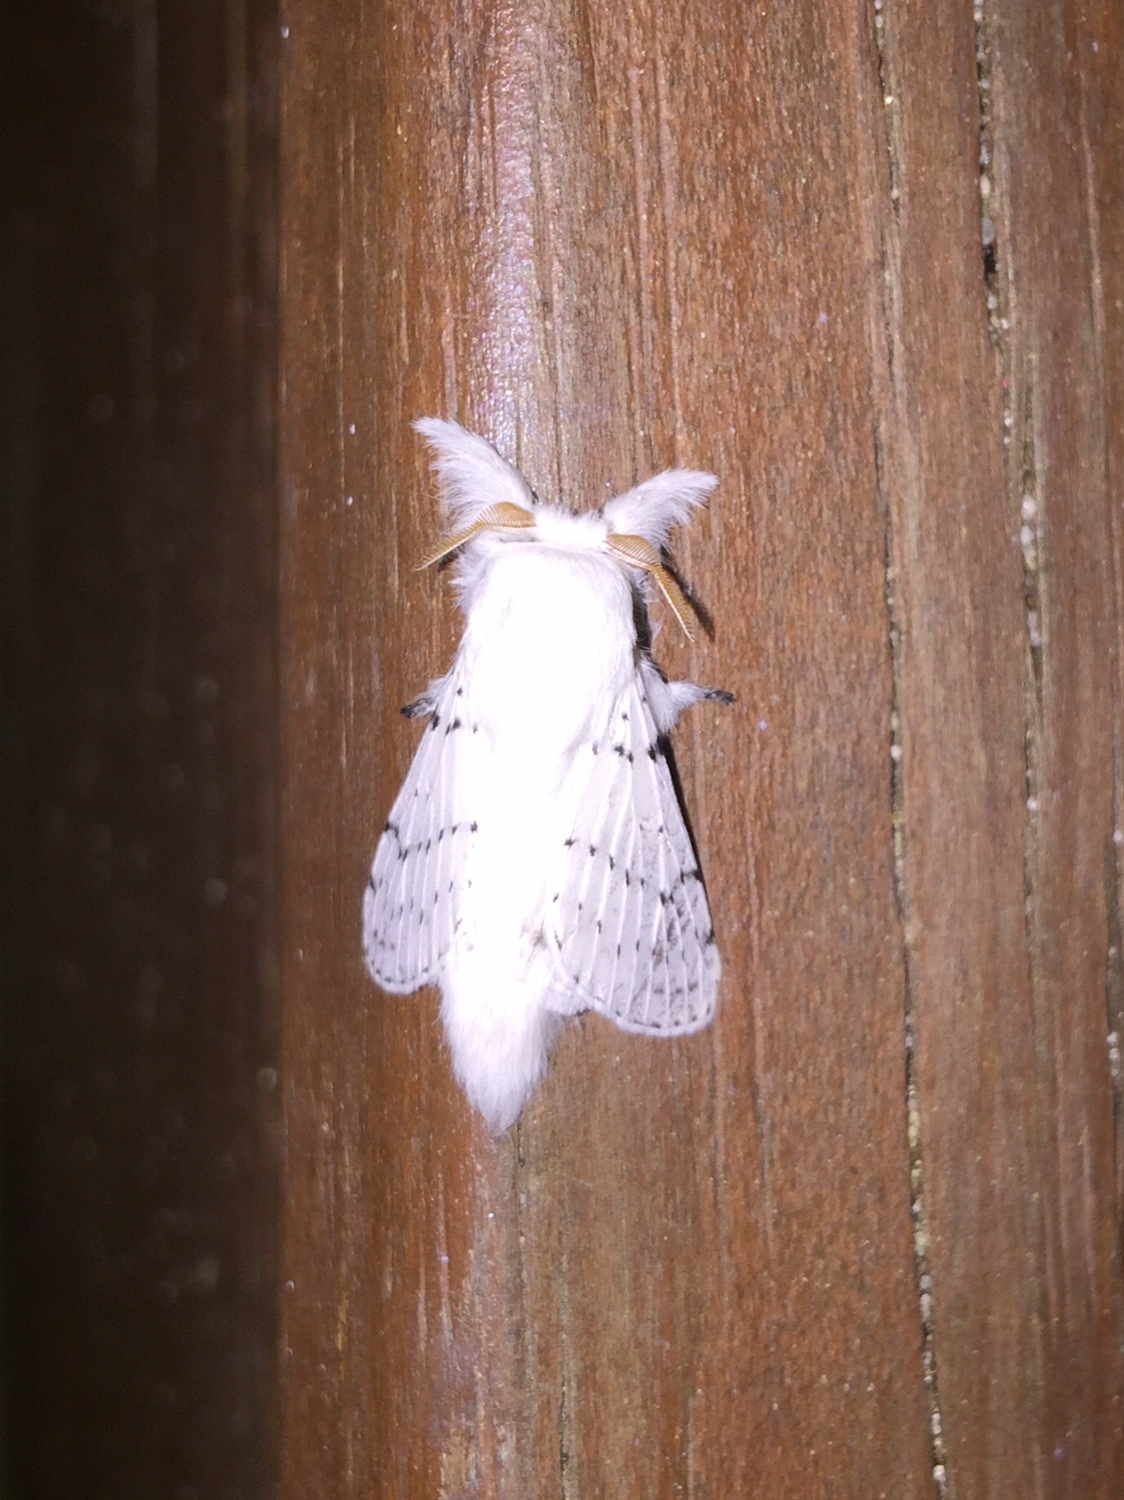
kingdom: Animalia
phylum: Arthropoda
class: Insecta
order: Lepidoptera
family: Lasiocampidae
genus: Artace
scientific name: Artace cribrarius
